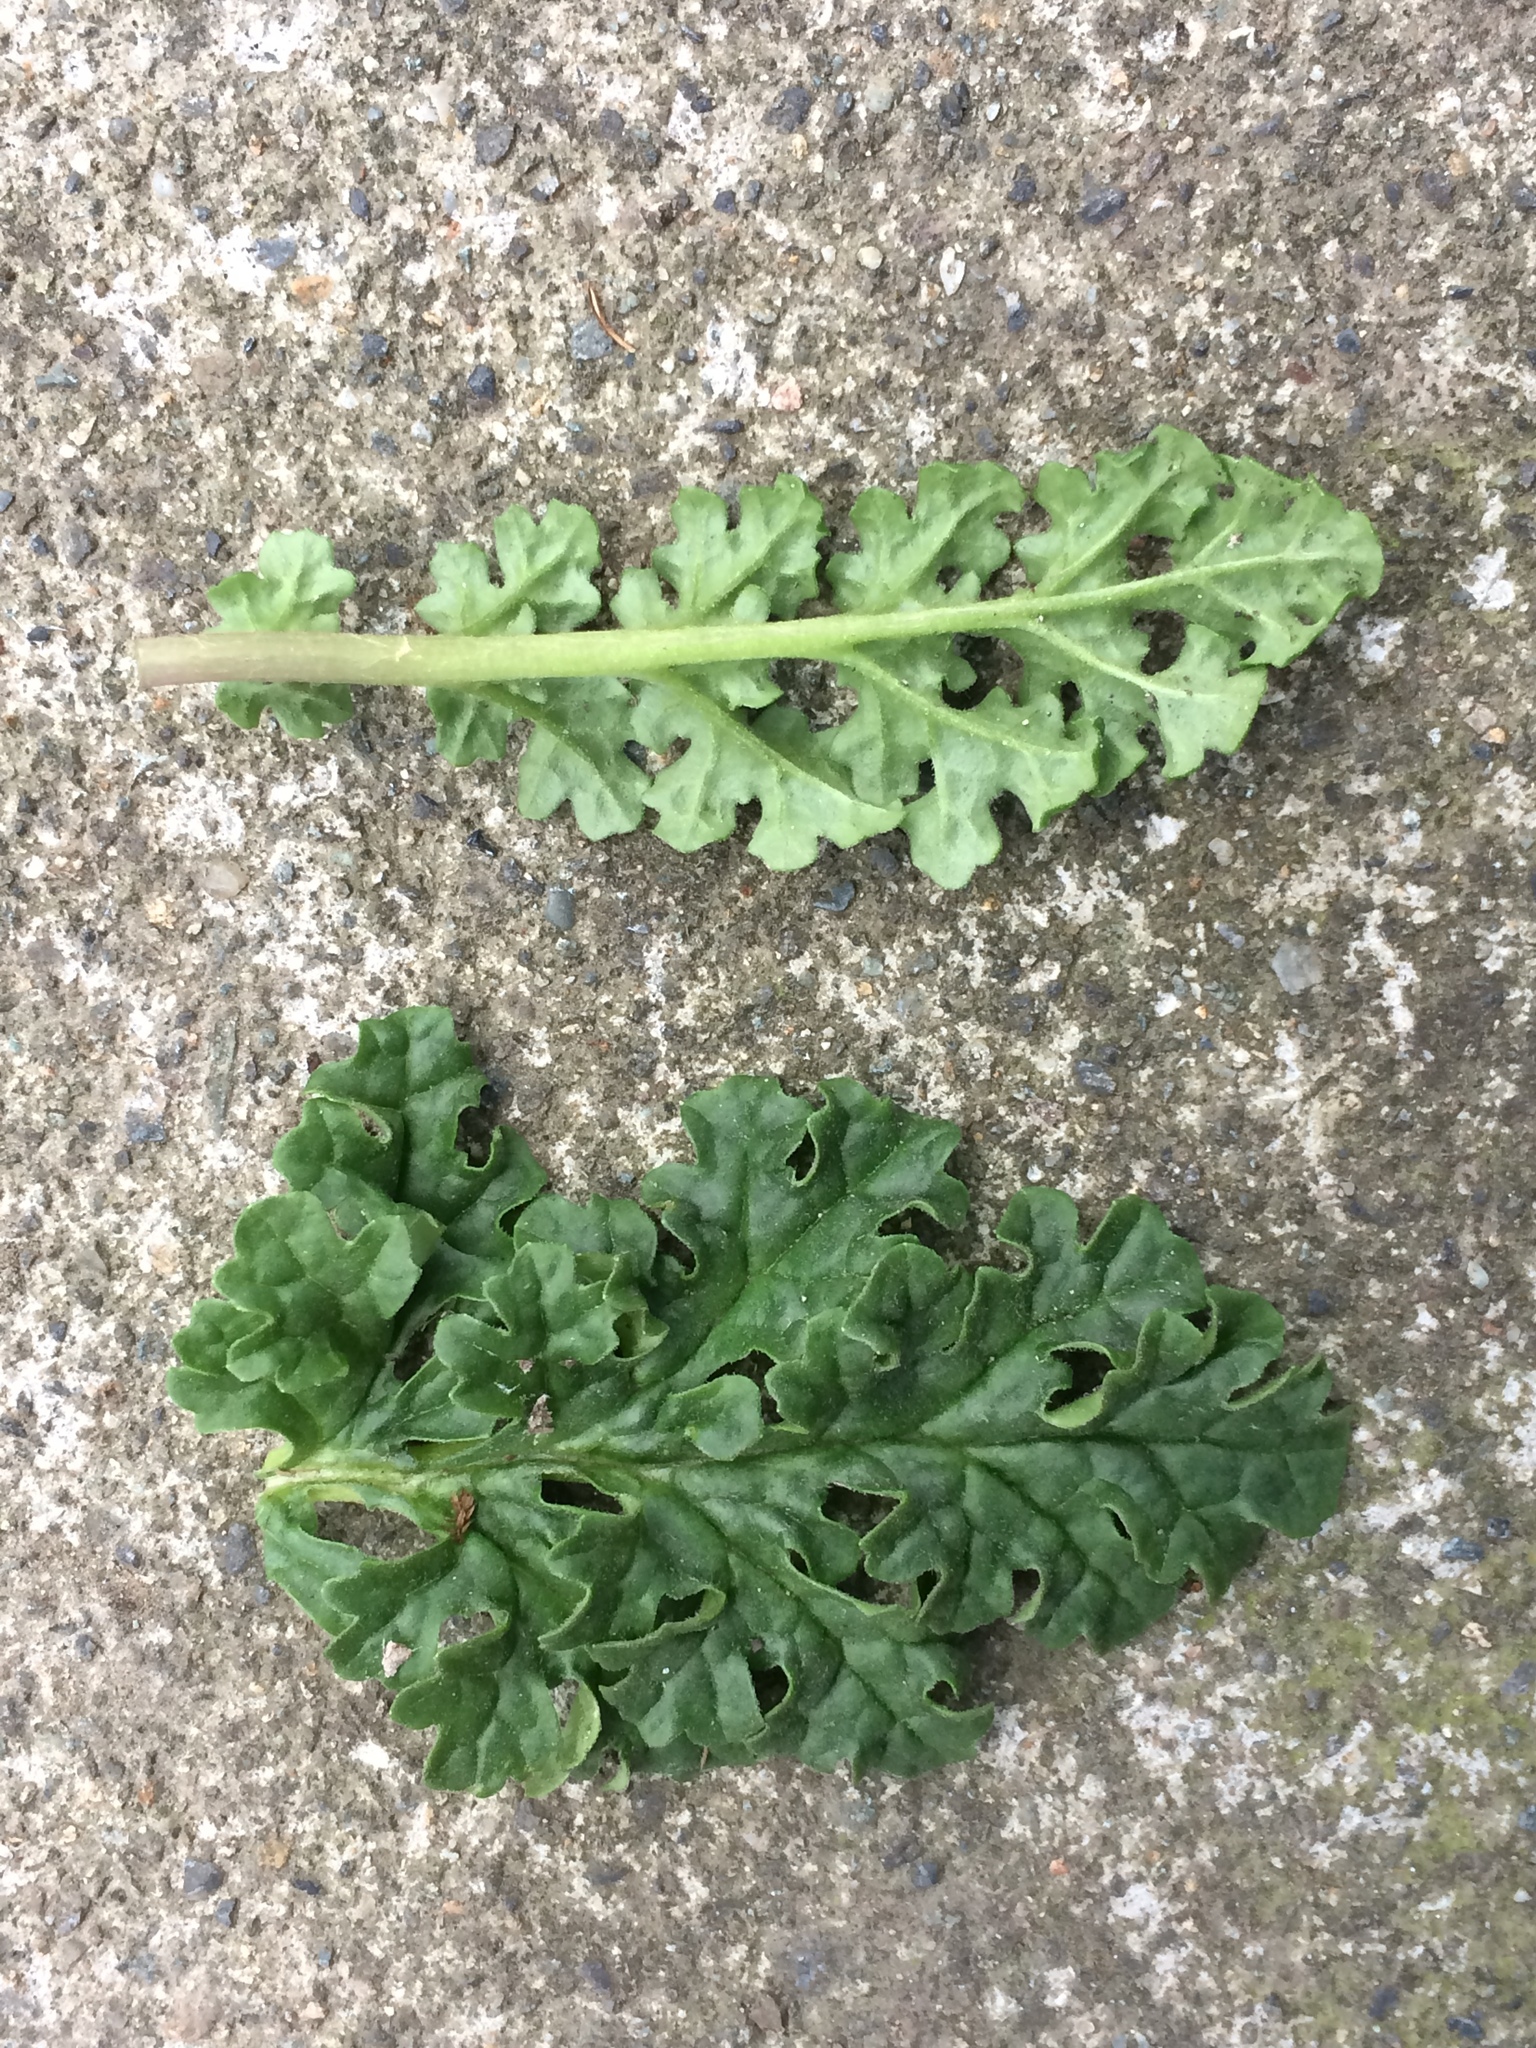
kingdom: Plantae
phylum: Tracheophyta
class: Magnoliopsida
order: Asterales
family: Asteraceae
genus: Jacobaea
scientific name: Jacobaea vulgaris
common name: Stinking willie
